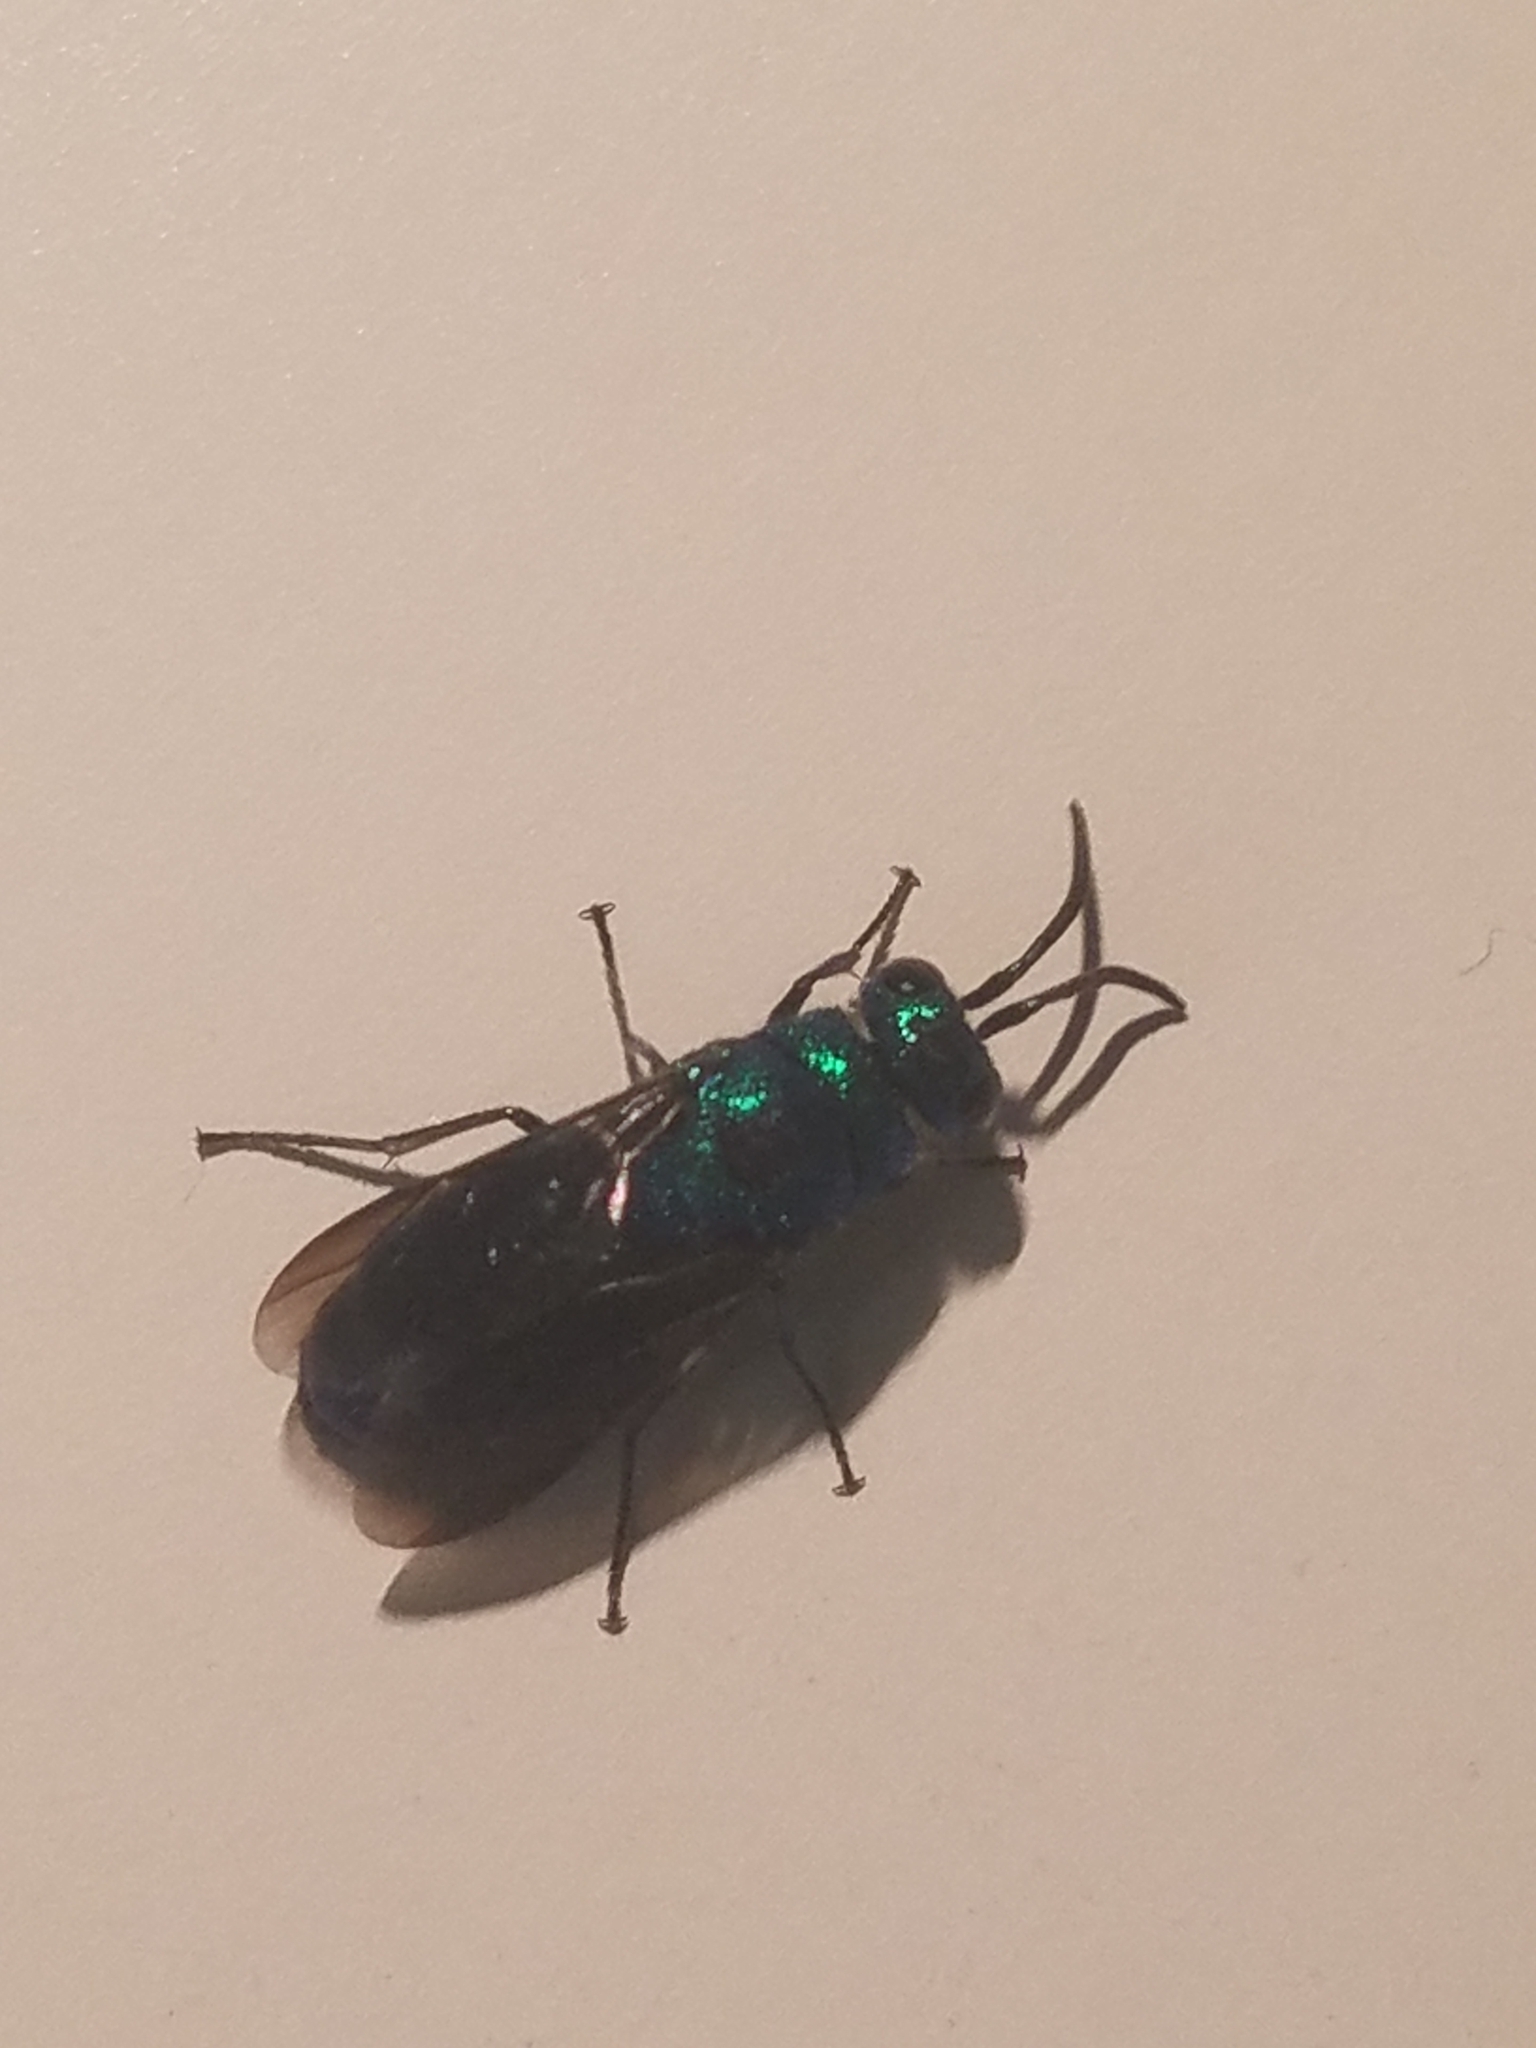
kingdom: Animalia
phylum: Arthropoda
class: Insecta
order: Hymenoptera
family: Chrysididae
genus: Chrysis
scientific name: Chrysis angolensis
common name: Cuckoo wasp
